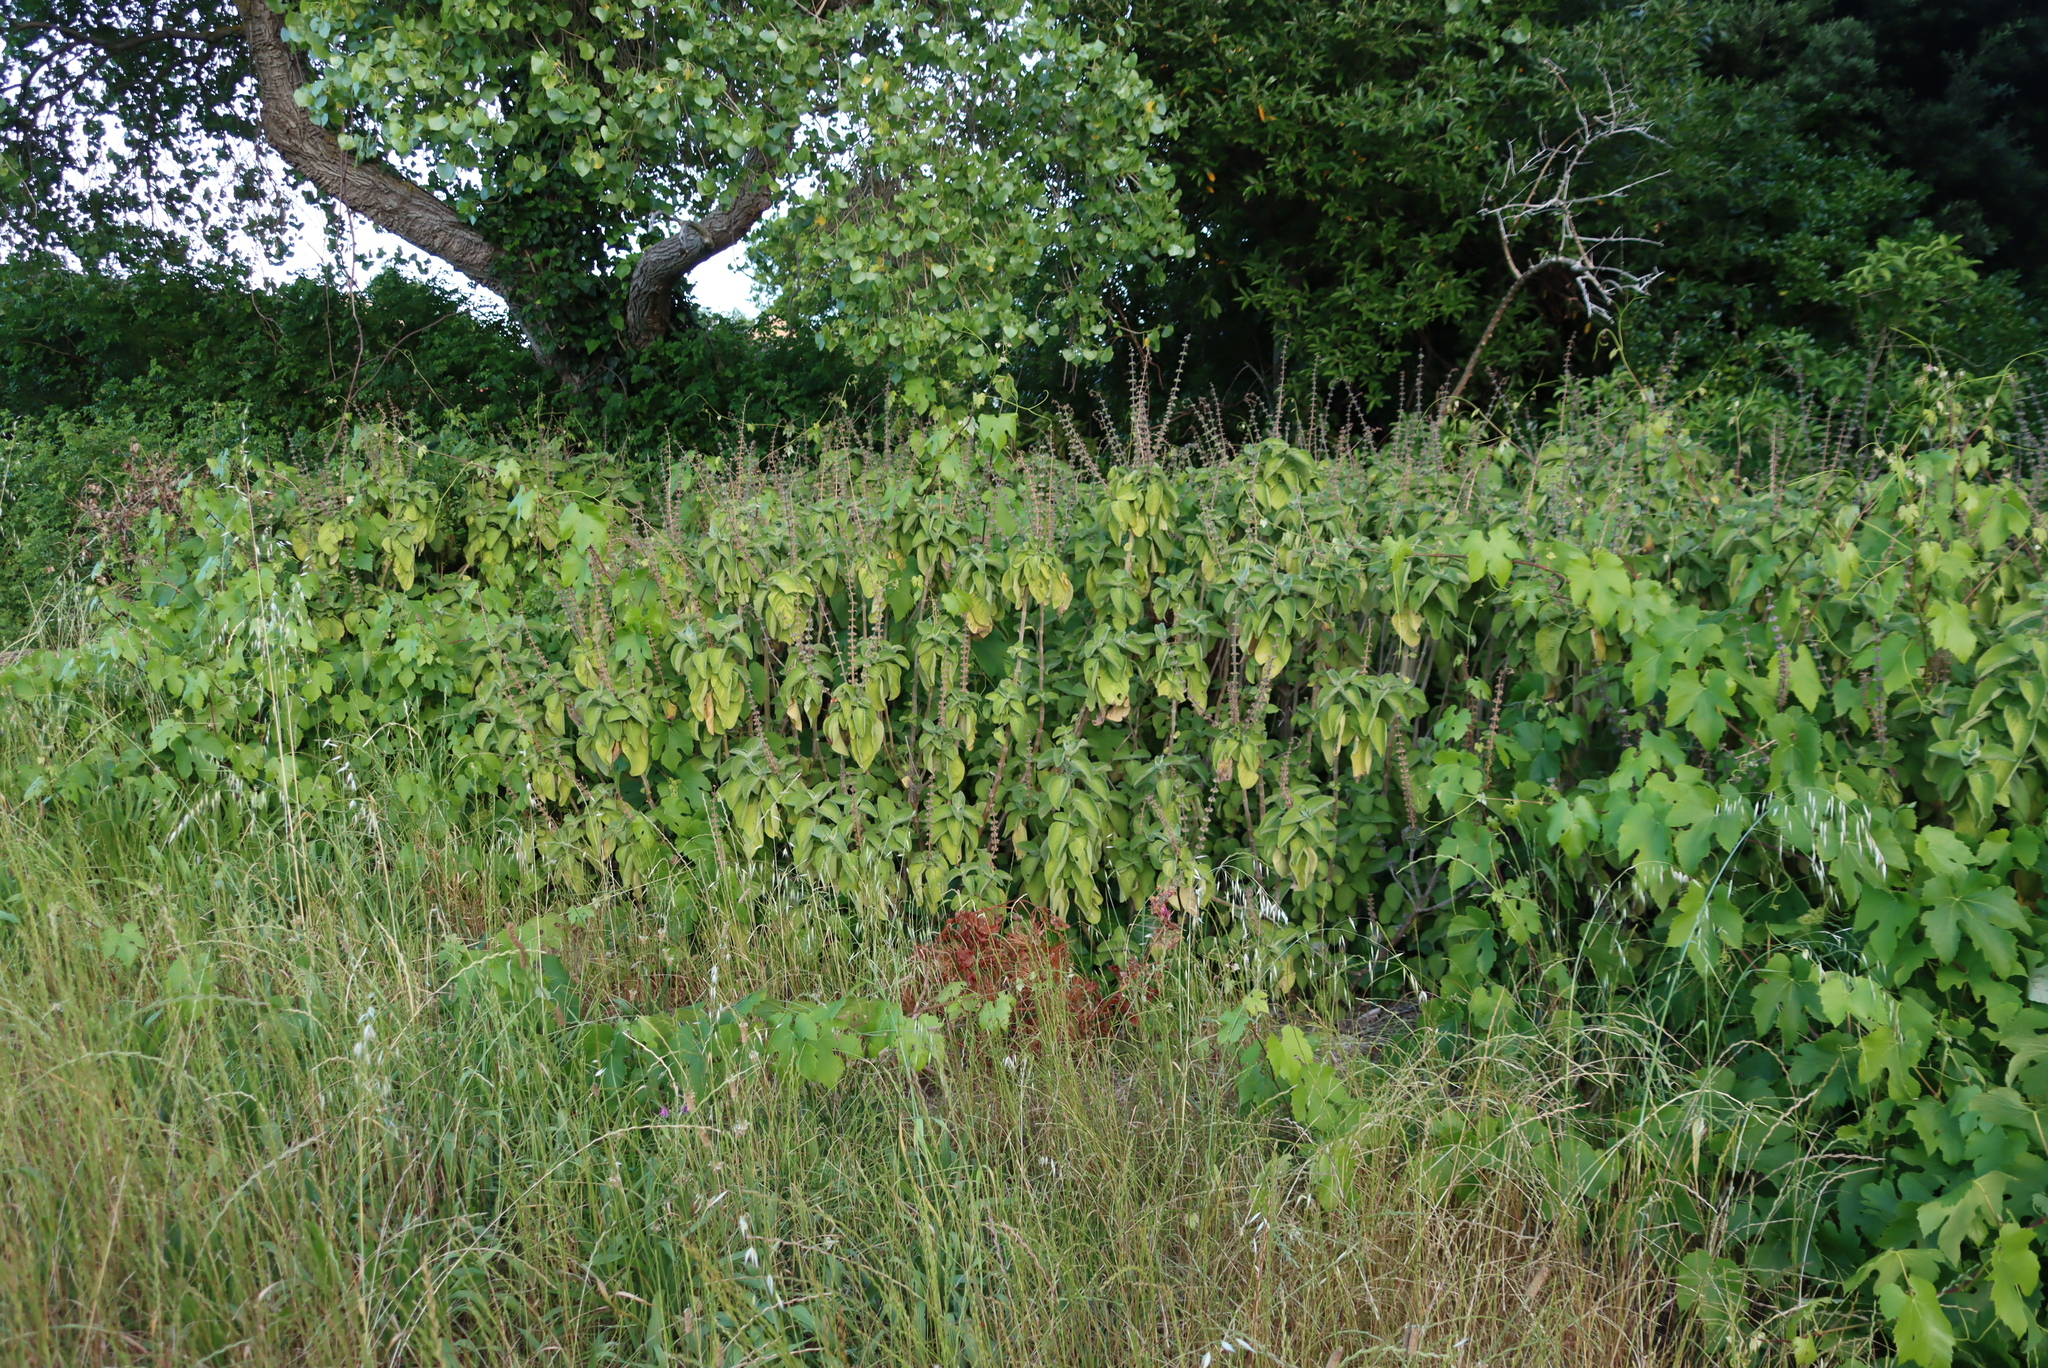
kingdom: Plantae
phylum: Tracheophyta
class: Magnoliopsida
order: Lamiales
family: Lamiaceae
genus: Coleus
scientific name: Coleus barbatus
